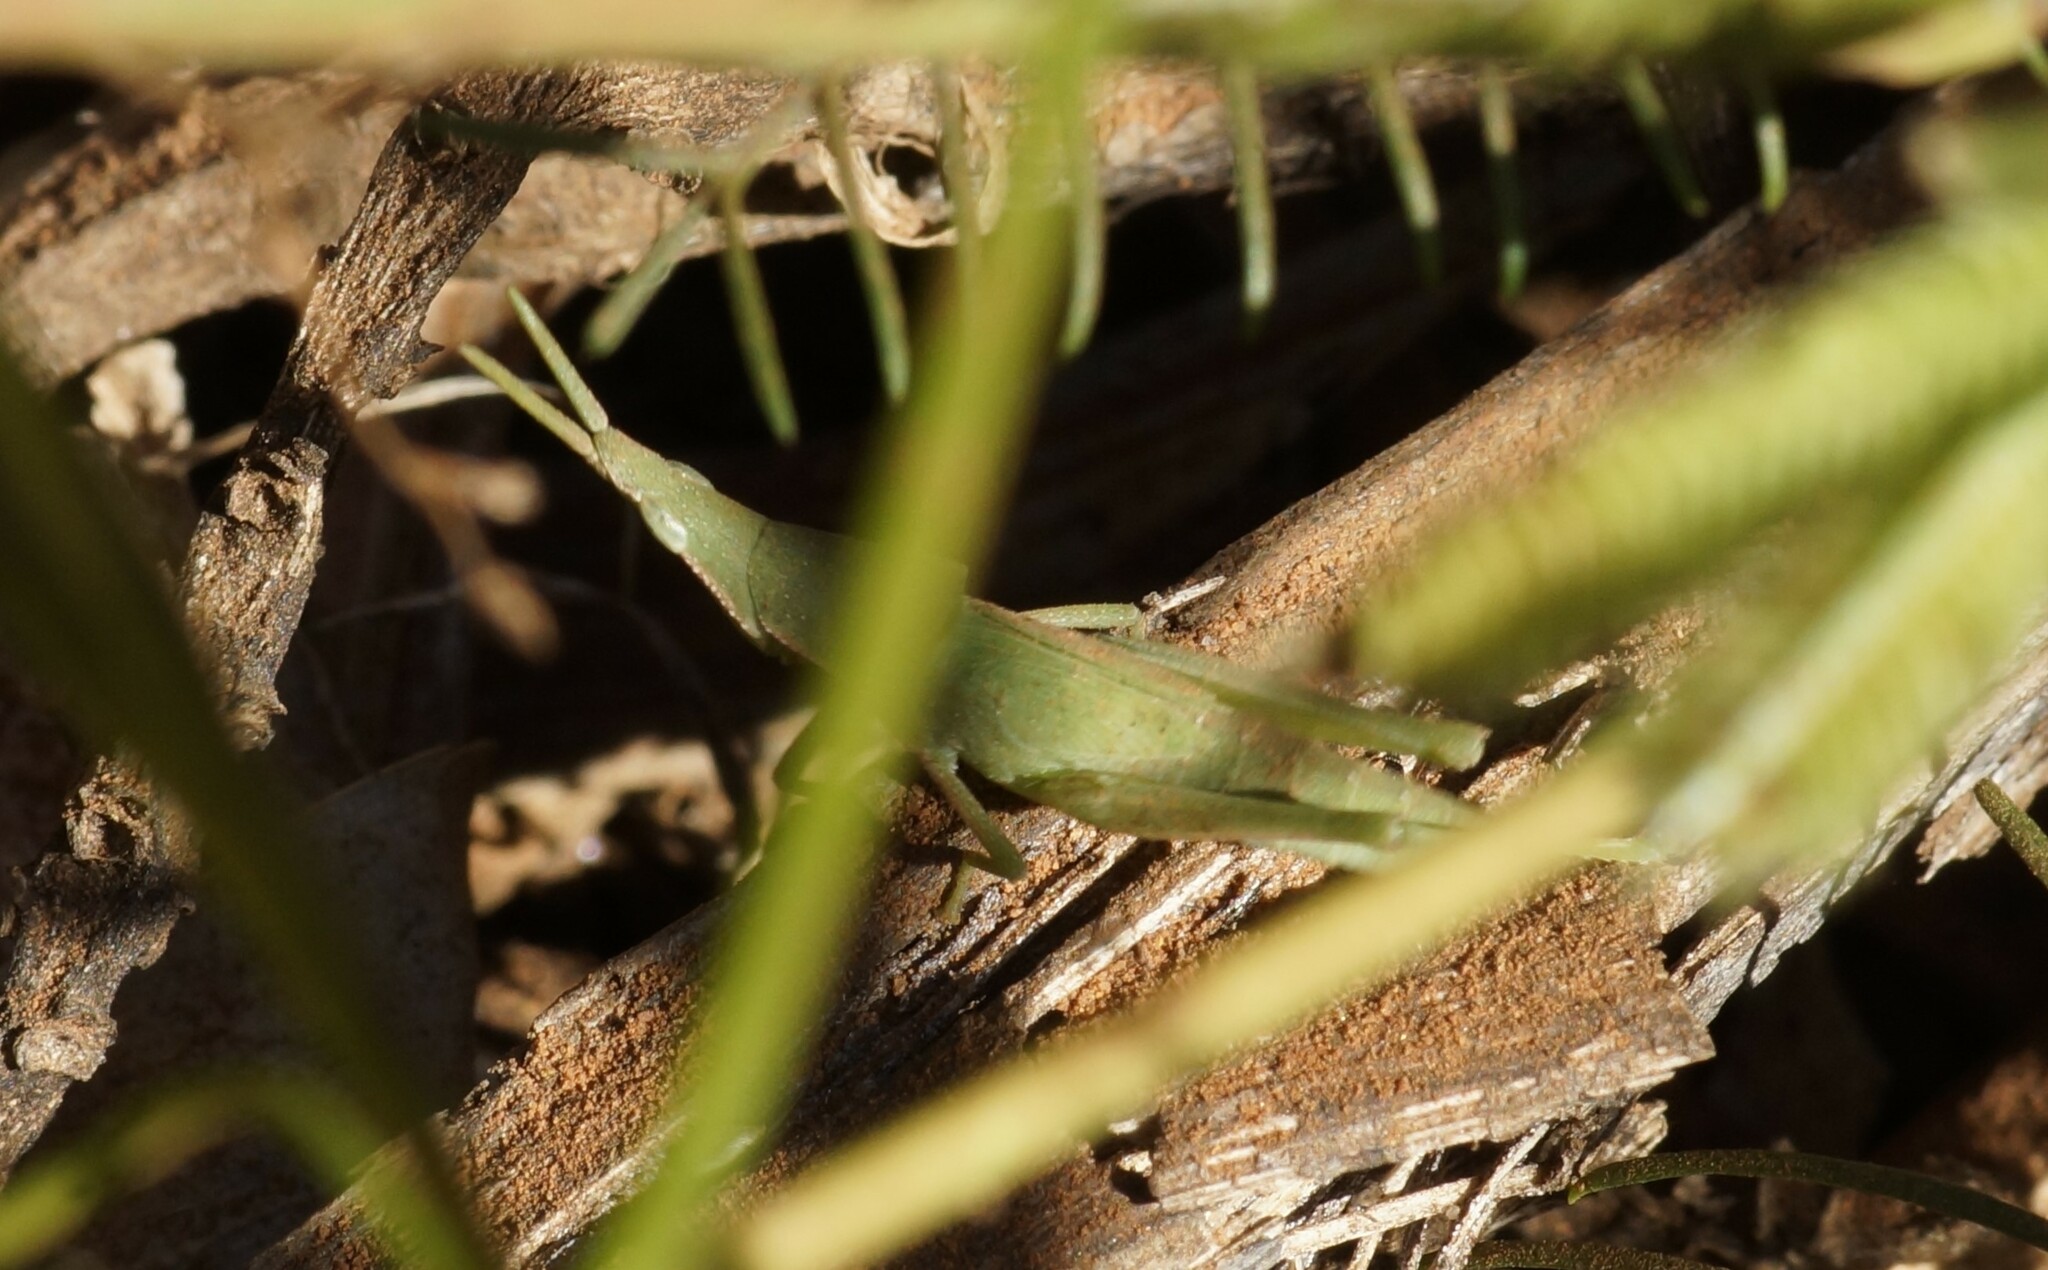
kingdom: Animalia
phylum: Arthropoda
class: Insecta
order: Orthoptera
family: Pyrgomorphidae
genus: Atractomorpha
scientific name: Atractomorpha similis
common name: Northern grass pyrgomorph
